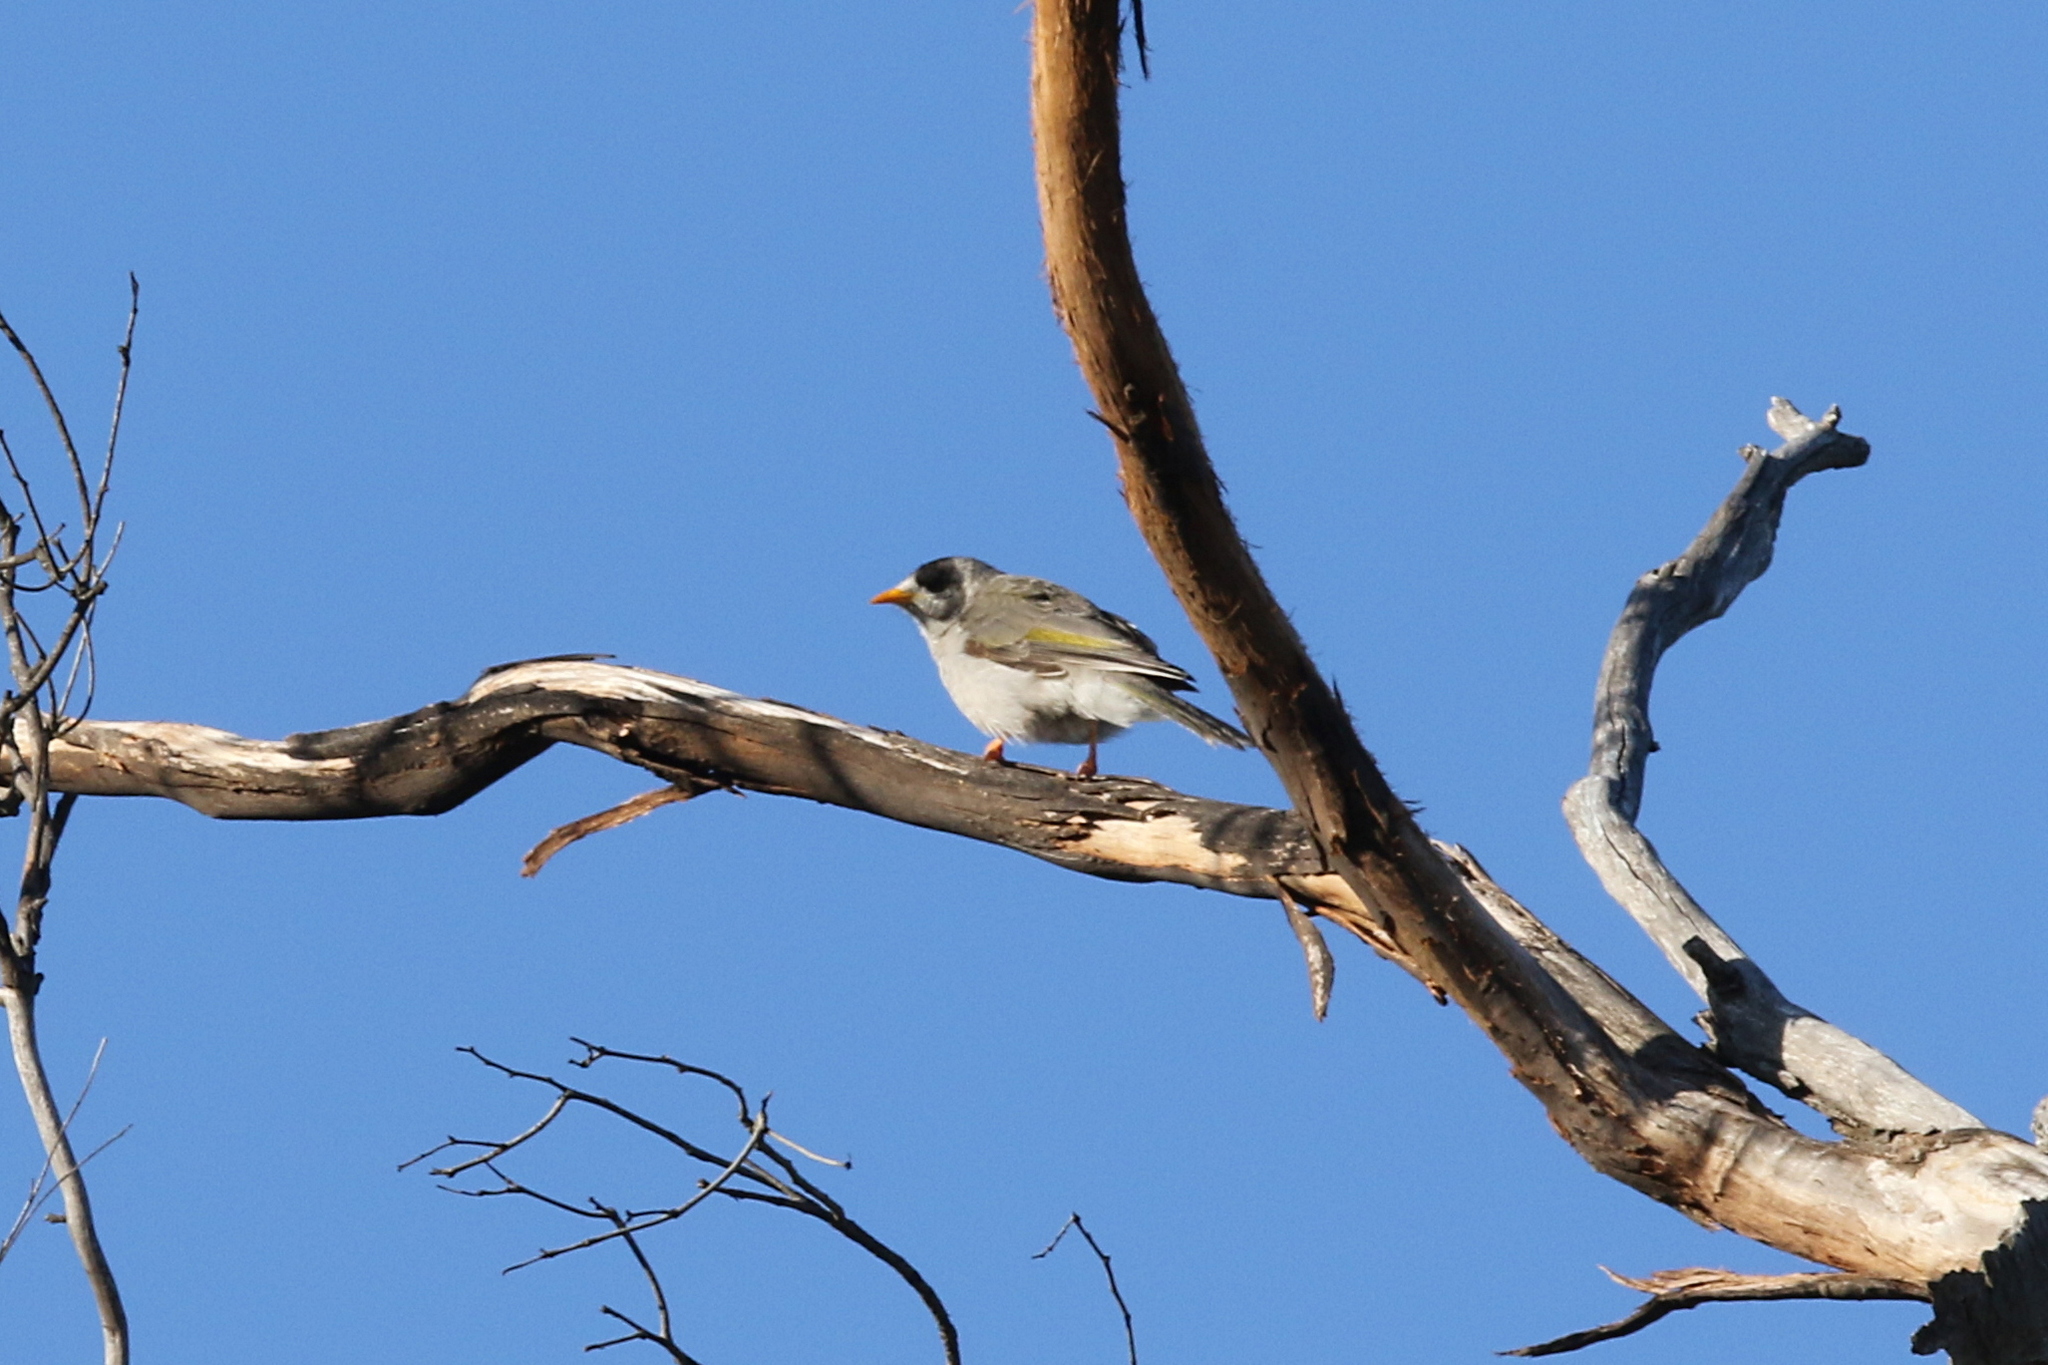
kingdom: Animalia
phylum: Chordata
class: Aves
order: Passeriformes
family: Meliphagidae
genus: Manorina
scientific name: Manorina melanocephala
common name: Noisy miner
